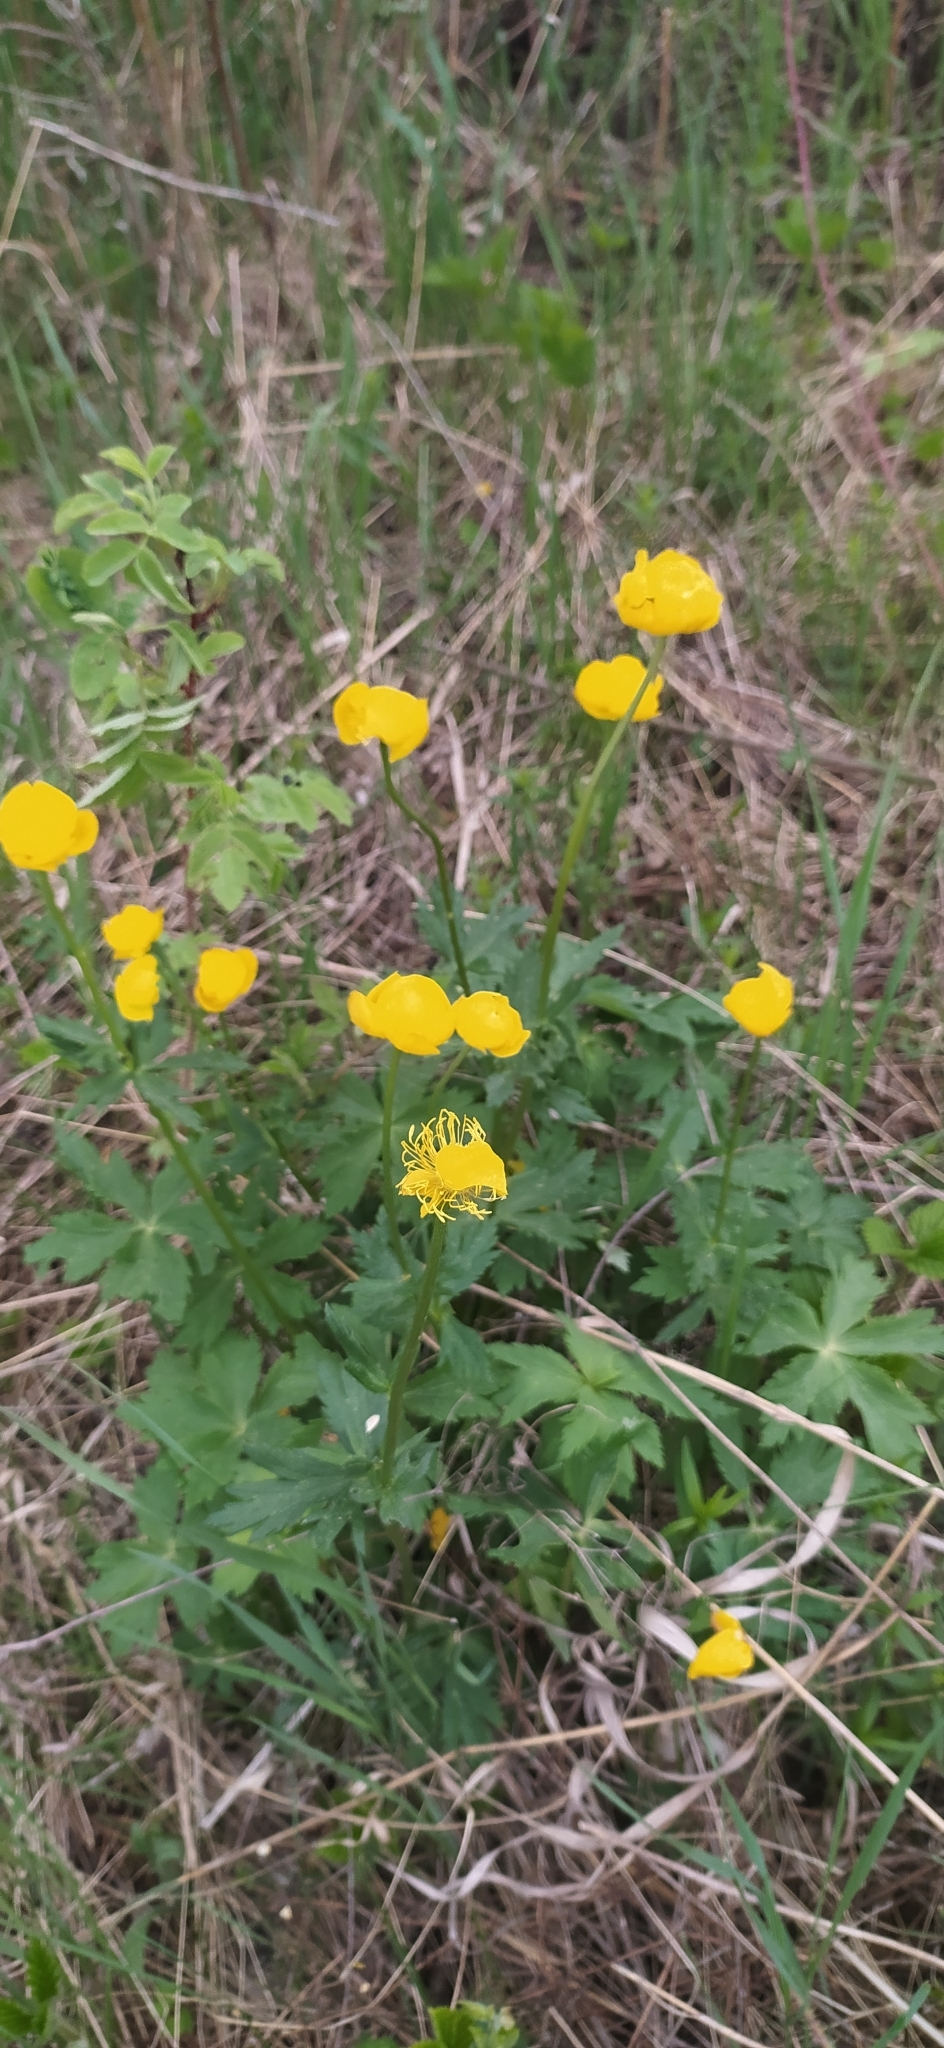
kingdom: Plantae
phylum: Tracheophyta
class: Magnoliopsida
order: Ranunculales
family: Ranunculaceae
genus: Trollius
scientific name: Trollius europaeus
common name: European globeflower
